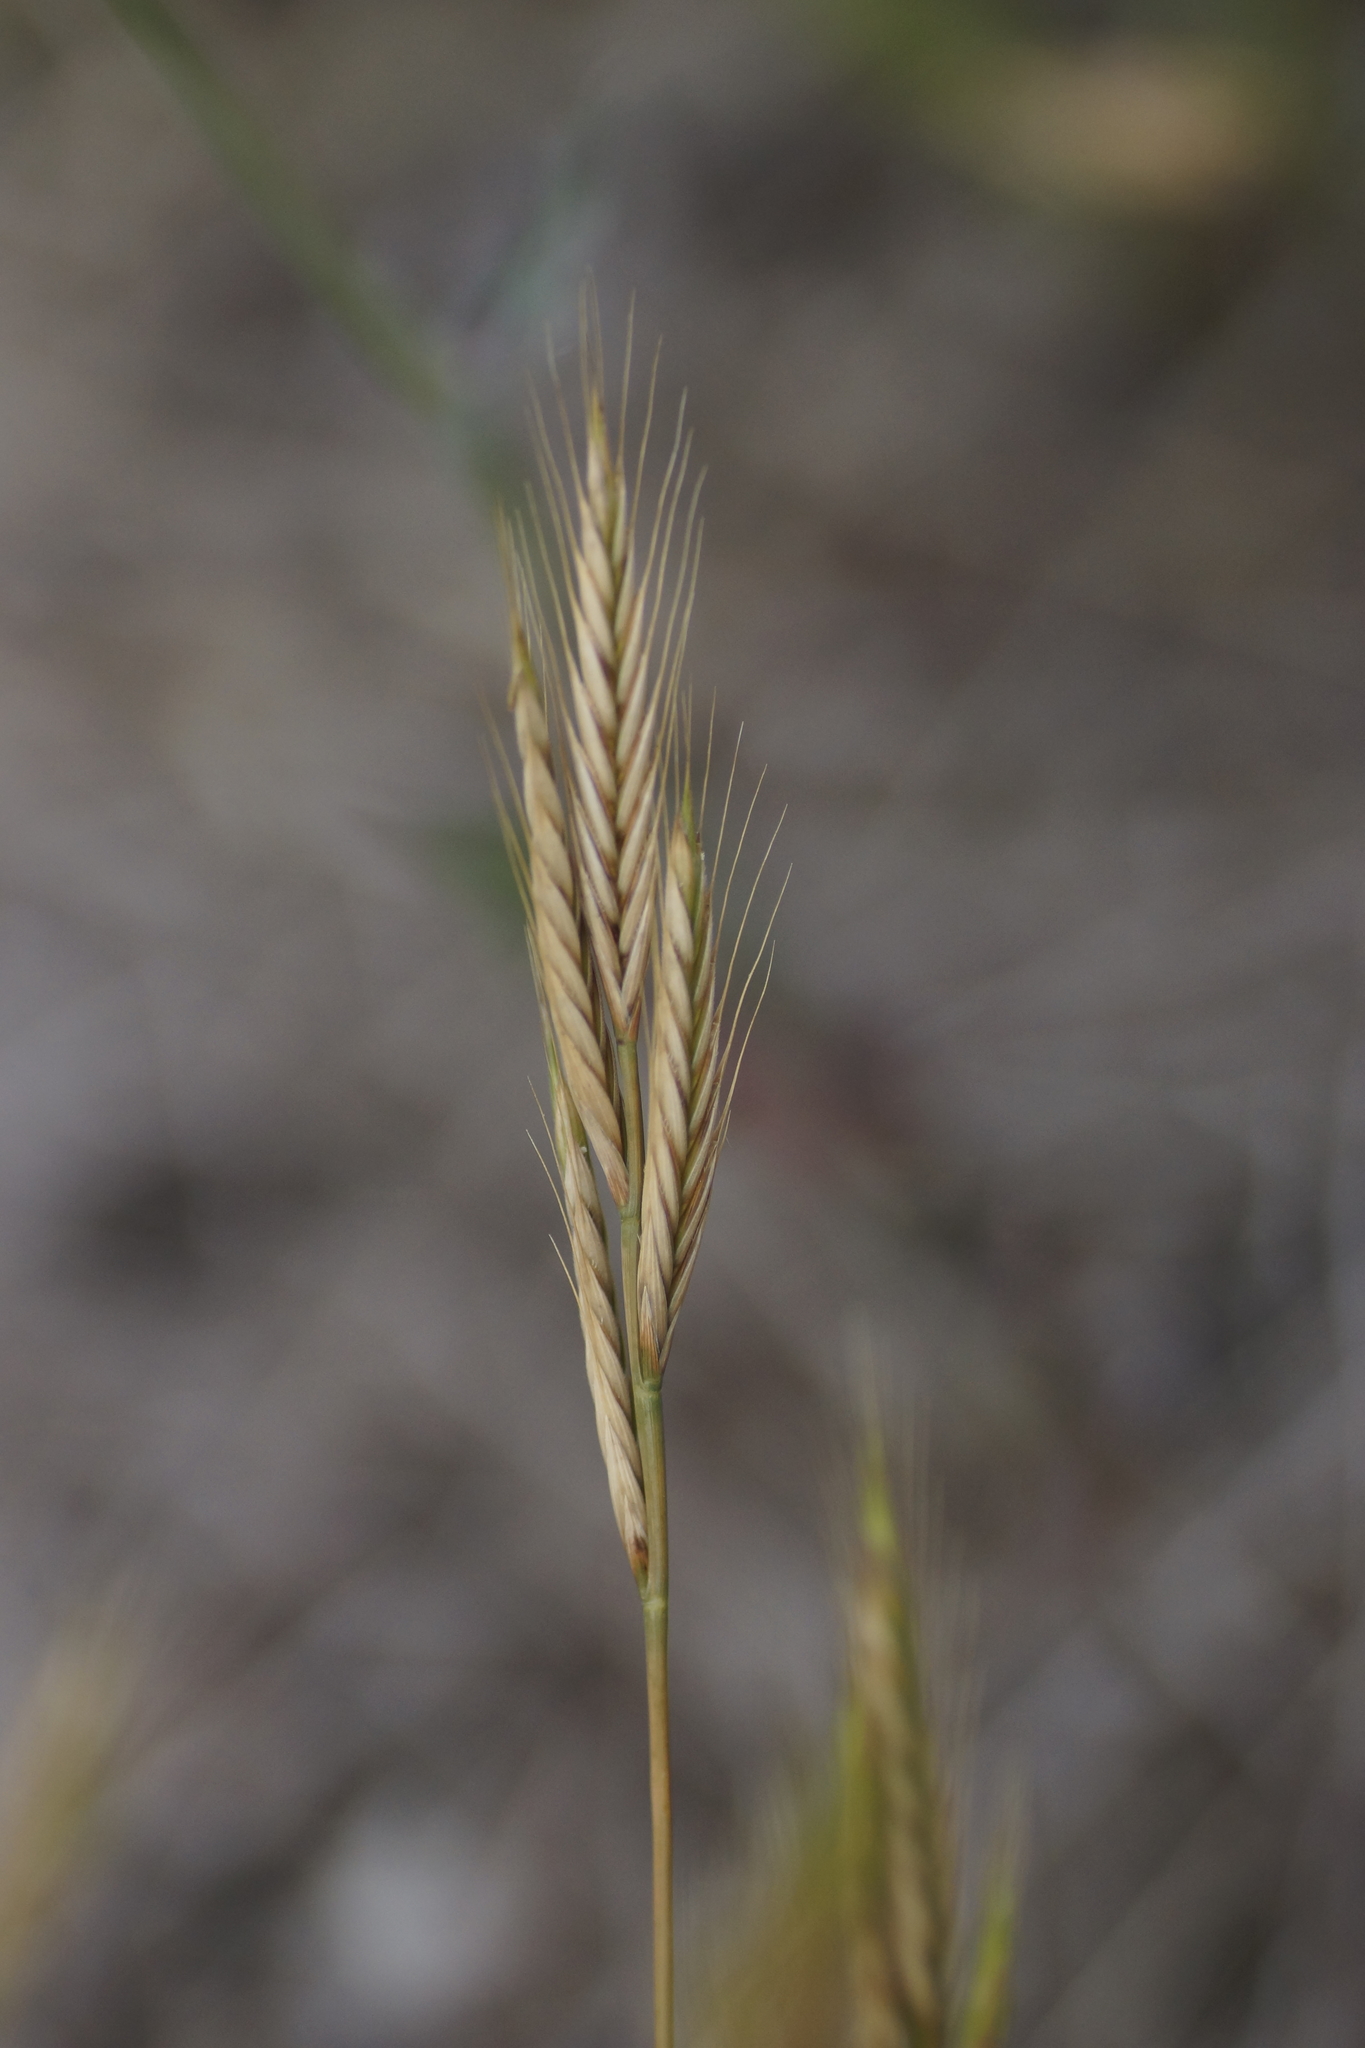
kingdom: Plantae
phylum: Tracheophyta
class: Liliopsida
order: Poales
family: Poaceae
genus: Brachypodium
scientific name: Brachypodium distachyon
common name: Stiff brome
